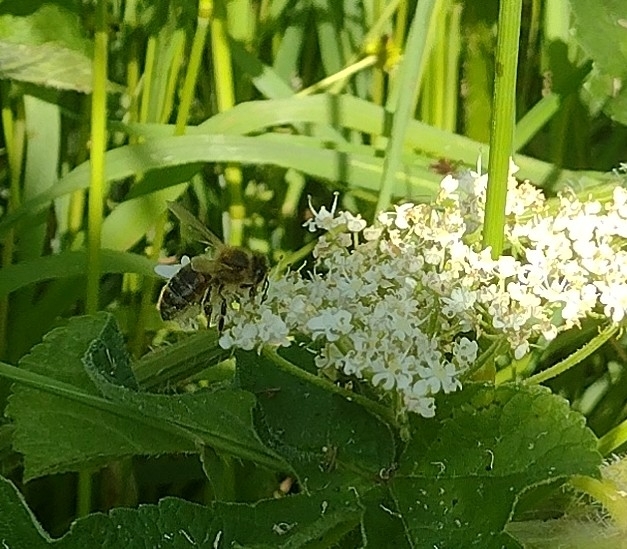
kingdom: Animalia
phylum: Arthropoda
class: Insecta
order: Hymenoptera
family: Apidae
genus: Apis
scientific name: Apis mellifera
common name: Honey bee
